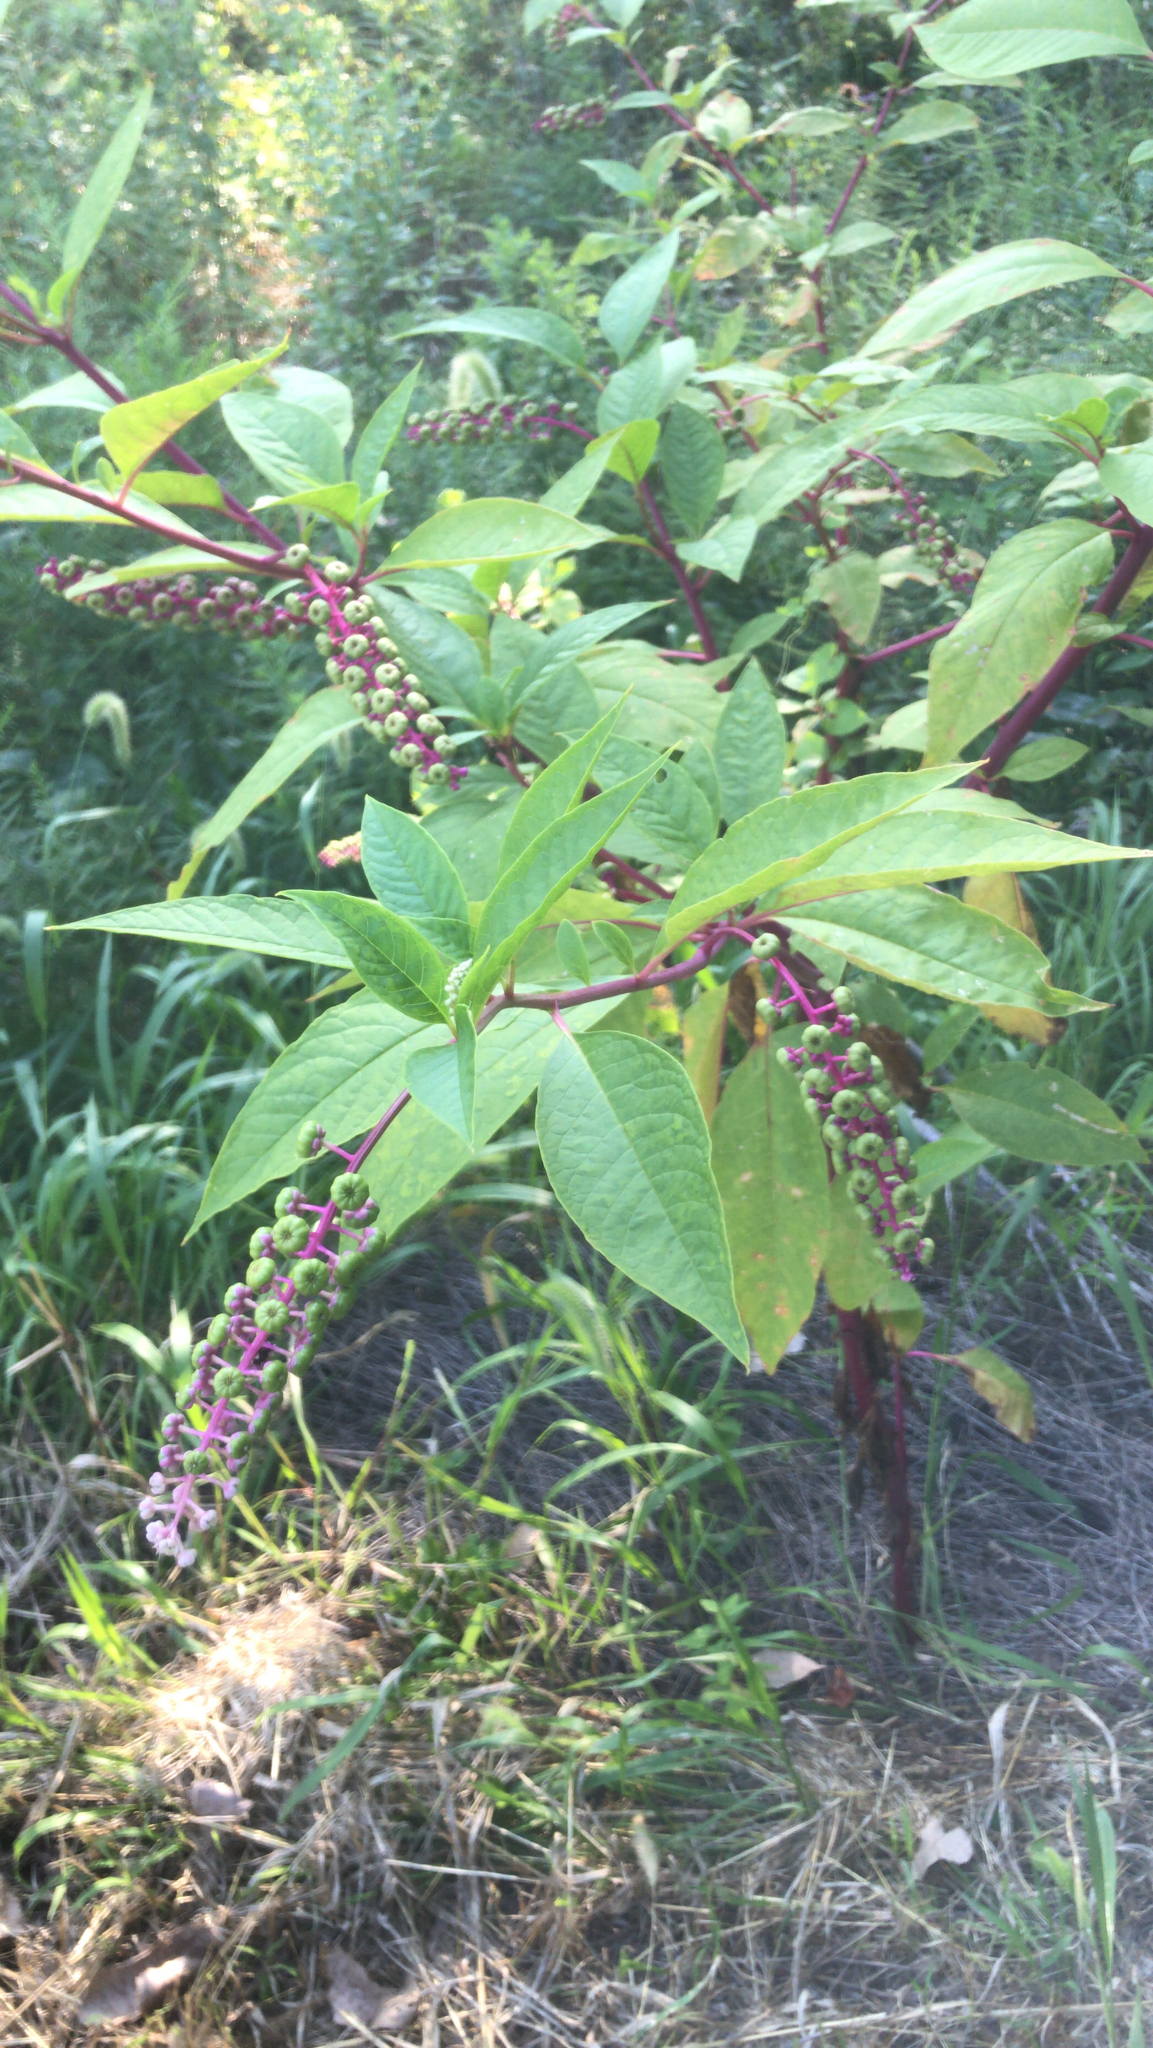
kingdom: Plantae
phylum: Tracheophyta
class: Magnoliopsida
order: Caryophyllales
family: Phytolaccaceae
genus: Phytolacca
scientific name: Phytolacca americana
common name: American pokeweed
